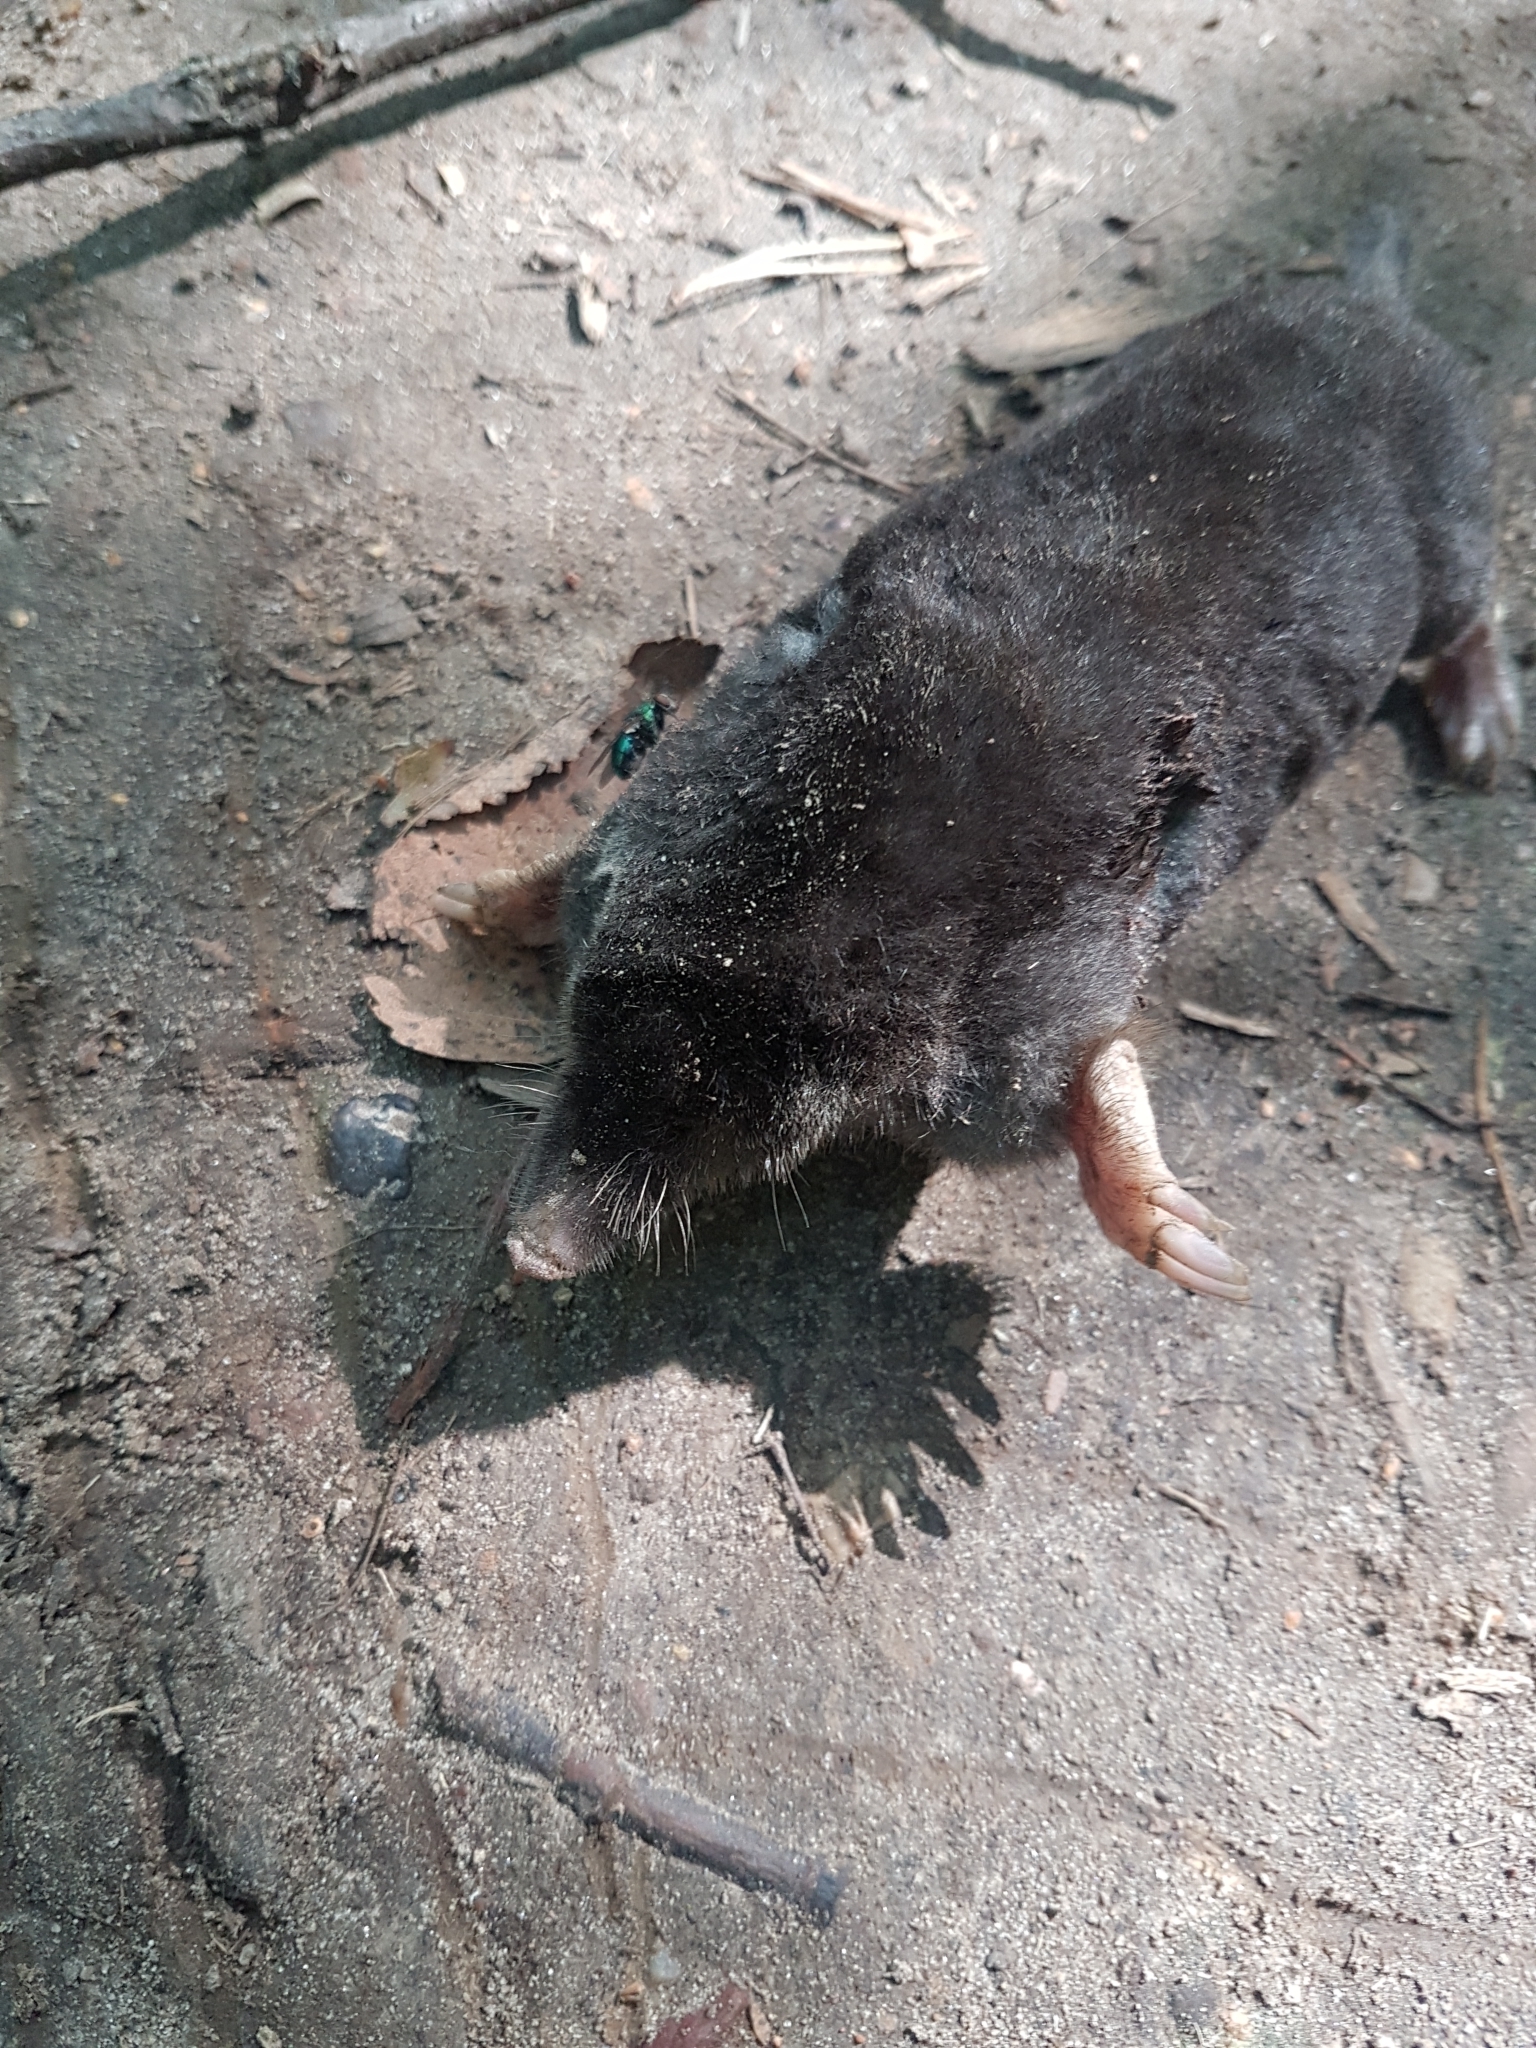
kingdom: Animalia
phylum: Chordata
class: Mammalia
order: Soricomorpha
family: Talpidae
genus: Talpa
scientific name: Talpa europaea
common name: European mole
